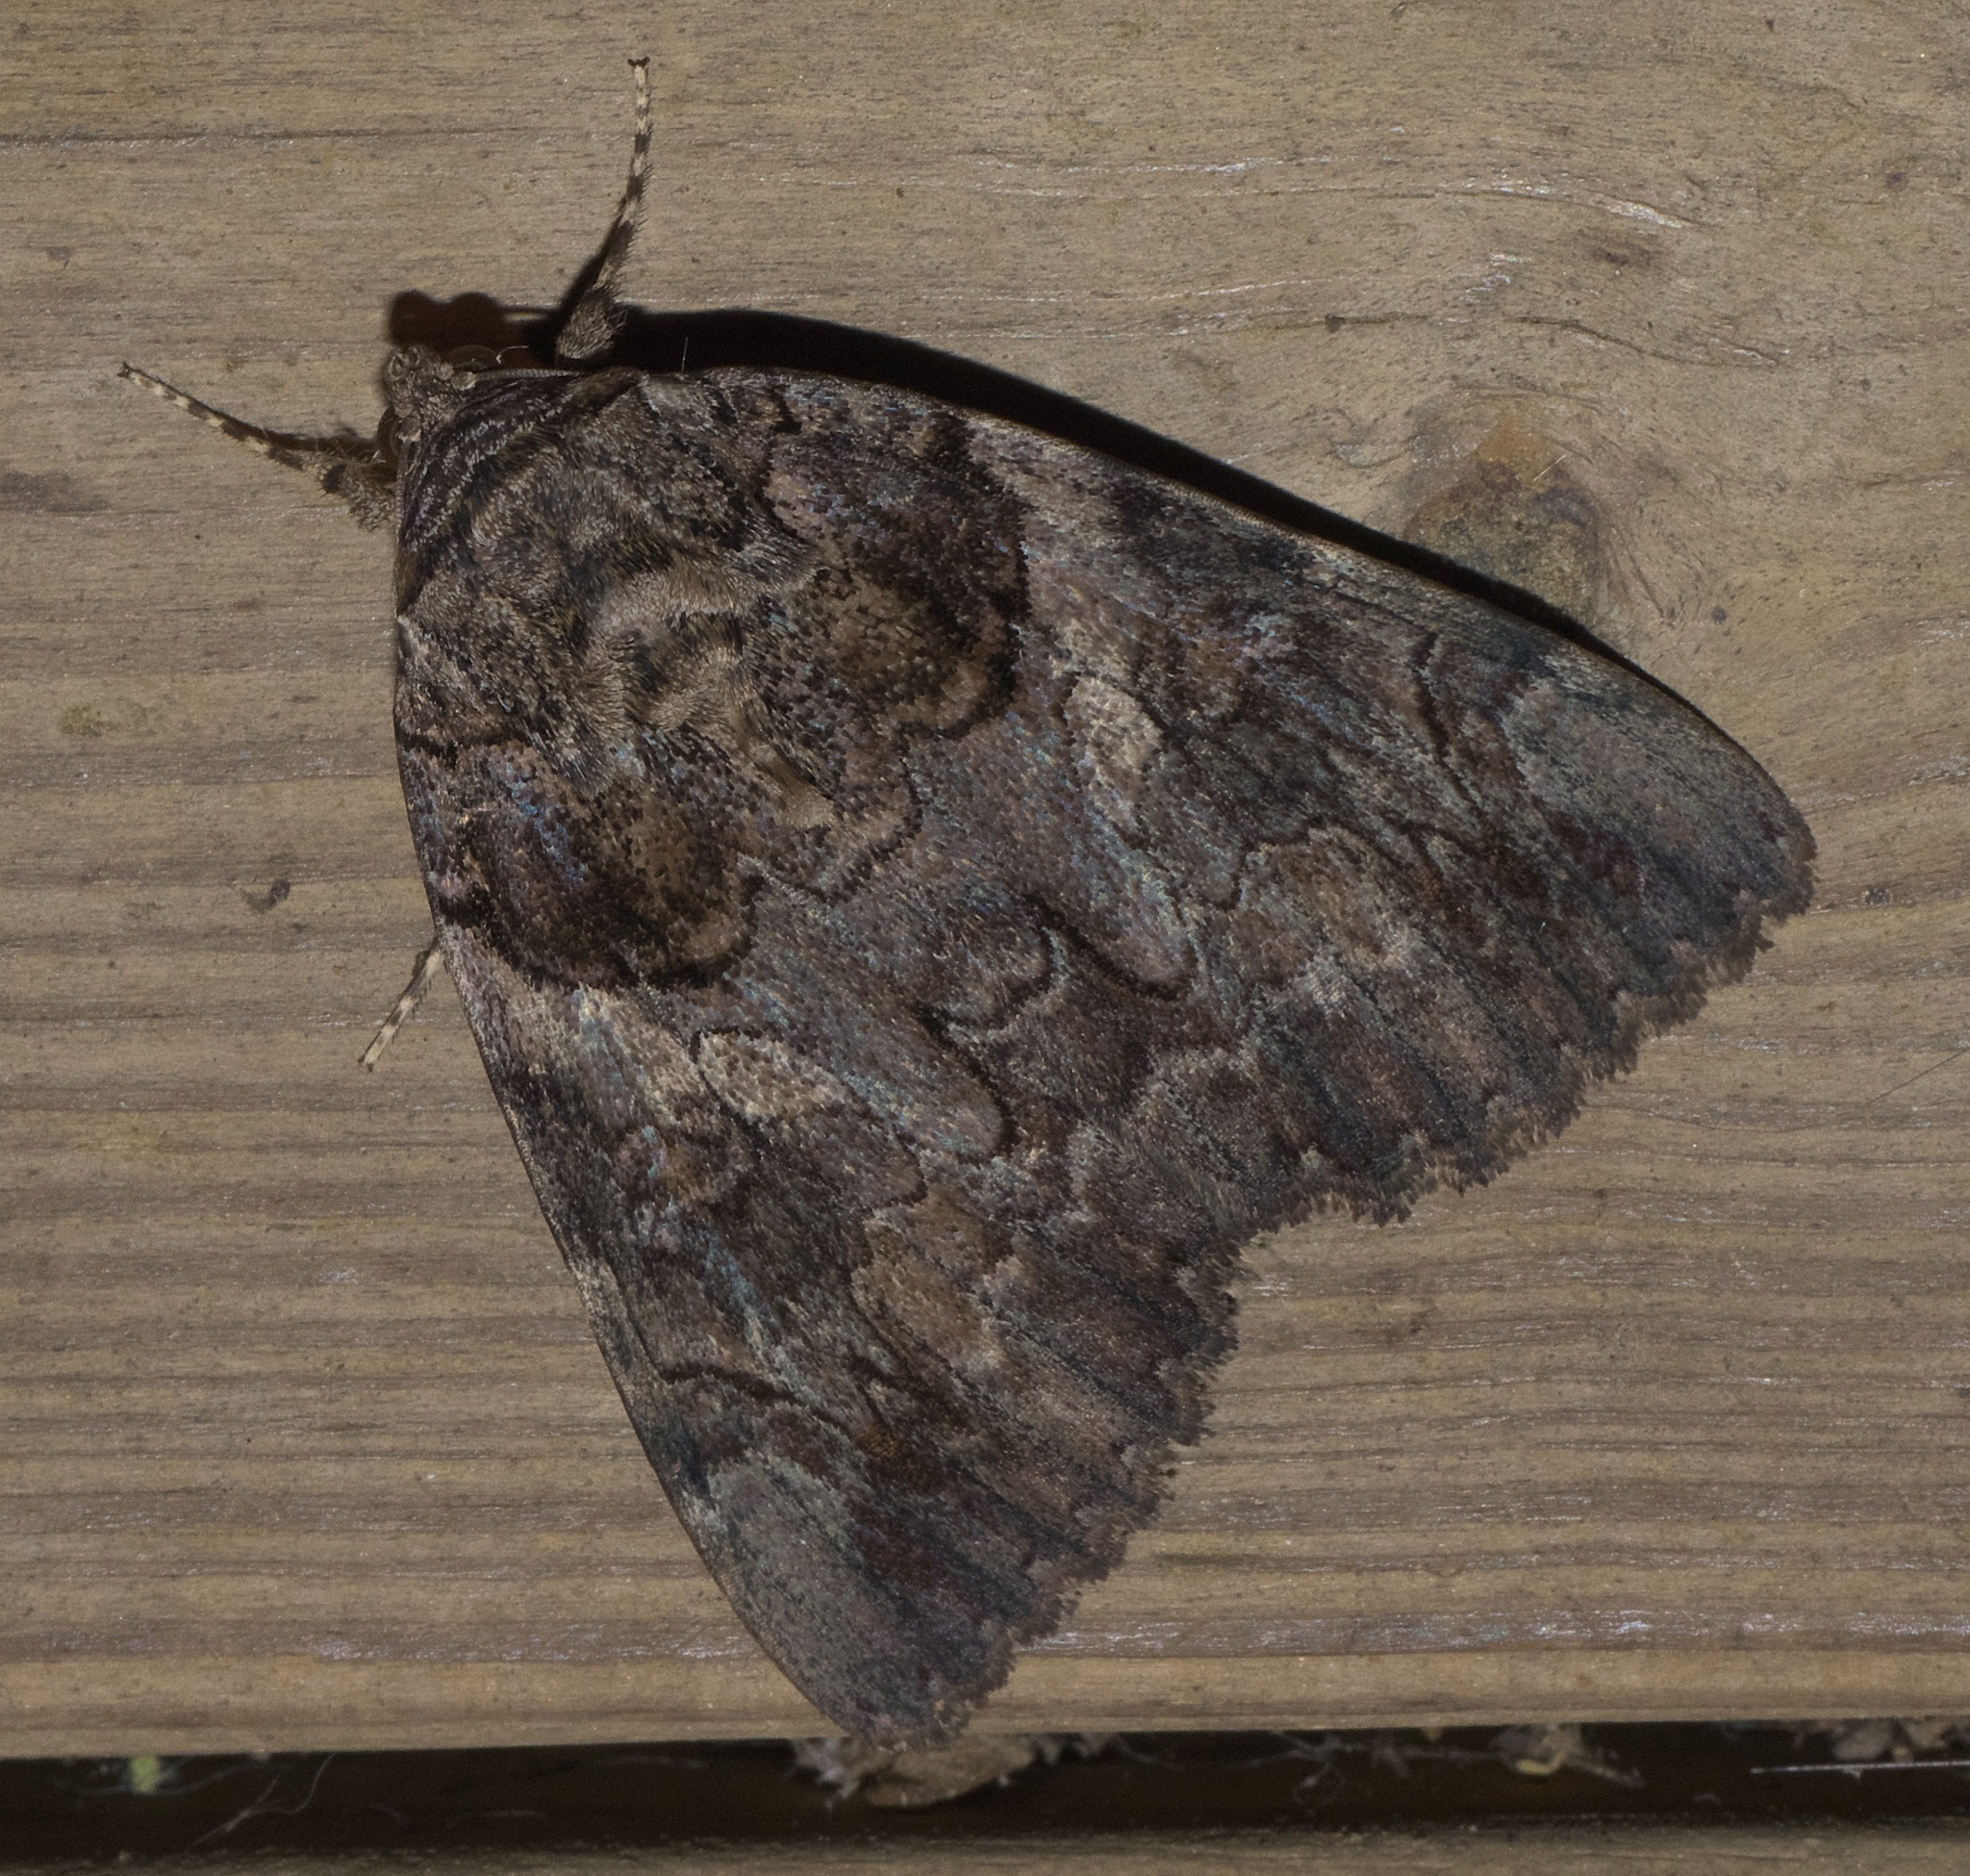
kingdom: Animalia
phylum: Arthropoda
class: Insecta
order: Lepidoptera
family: Erebidae
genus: Catocala
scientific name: Catocala piatrix
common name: The penitent underwing
